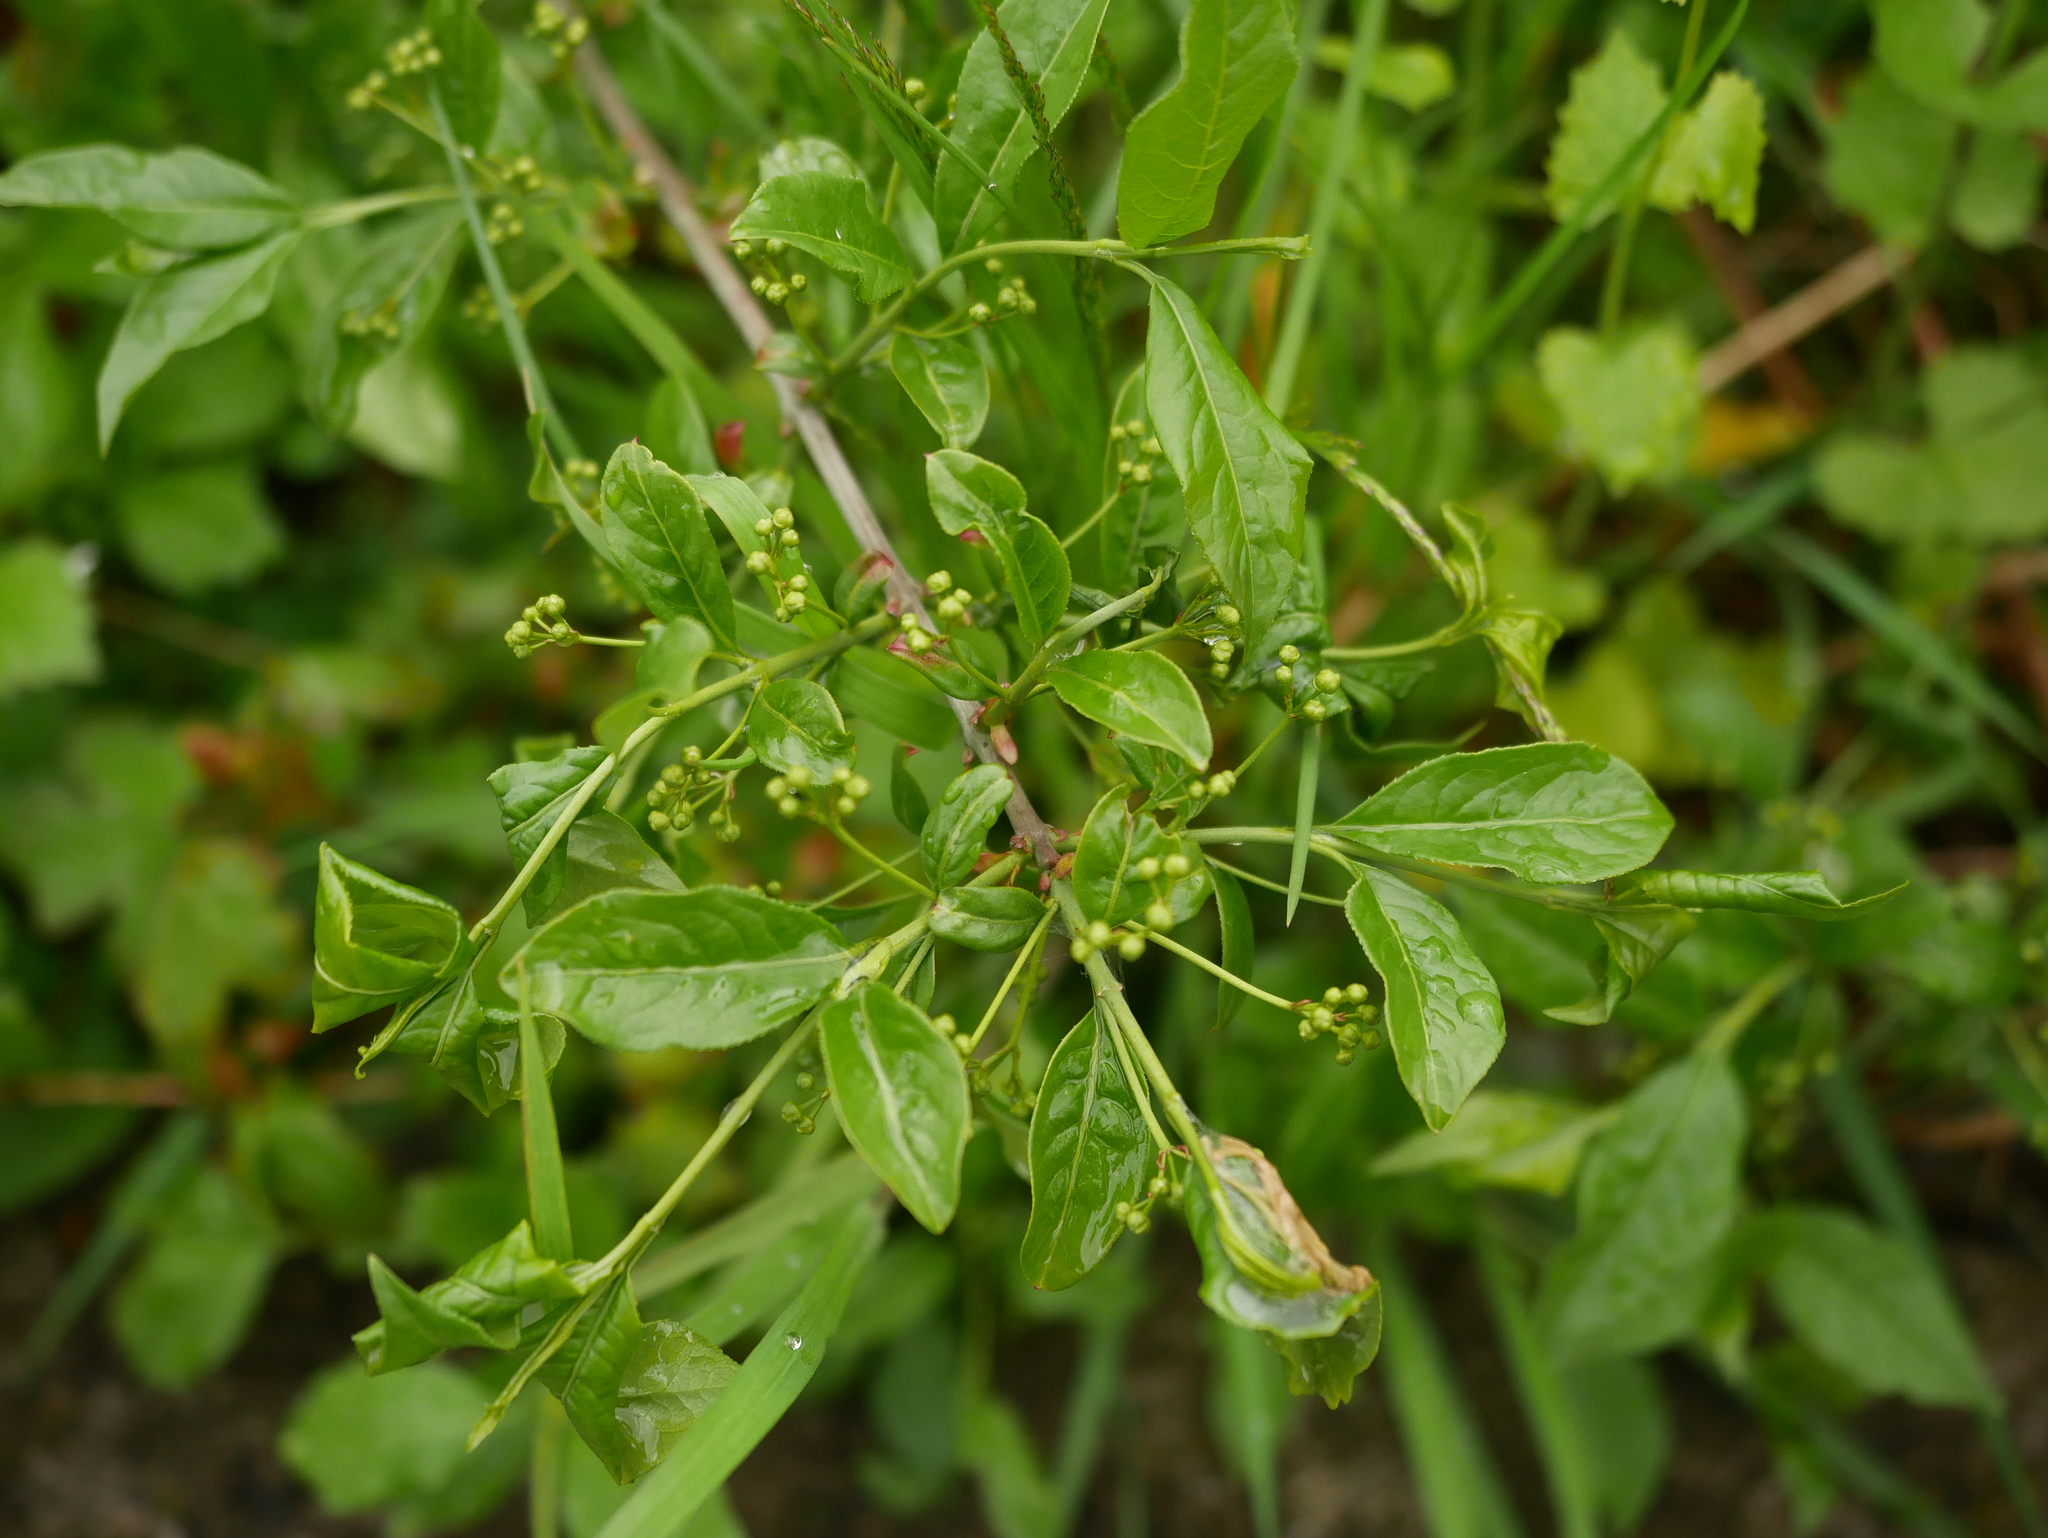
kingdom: Plantae
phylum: Tracheophyta
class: Magnoliopsida
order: Celastrales
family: Celastraceae
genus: Euonymus
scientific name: Euonymus europaeus
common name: Spindle
